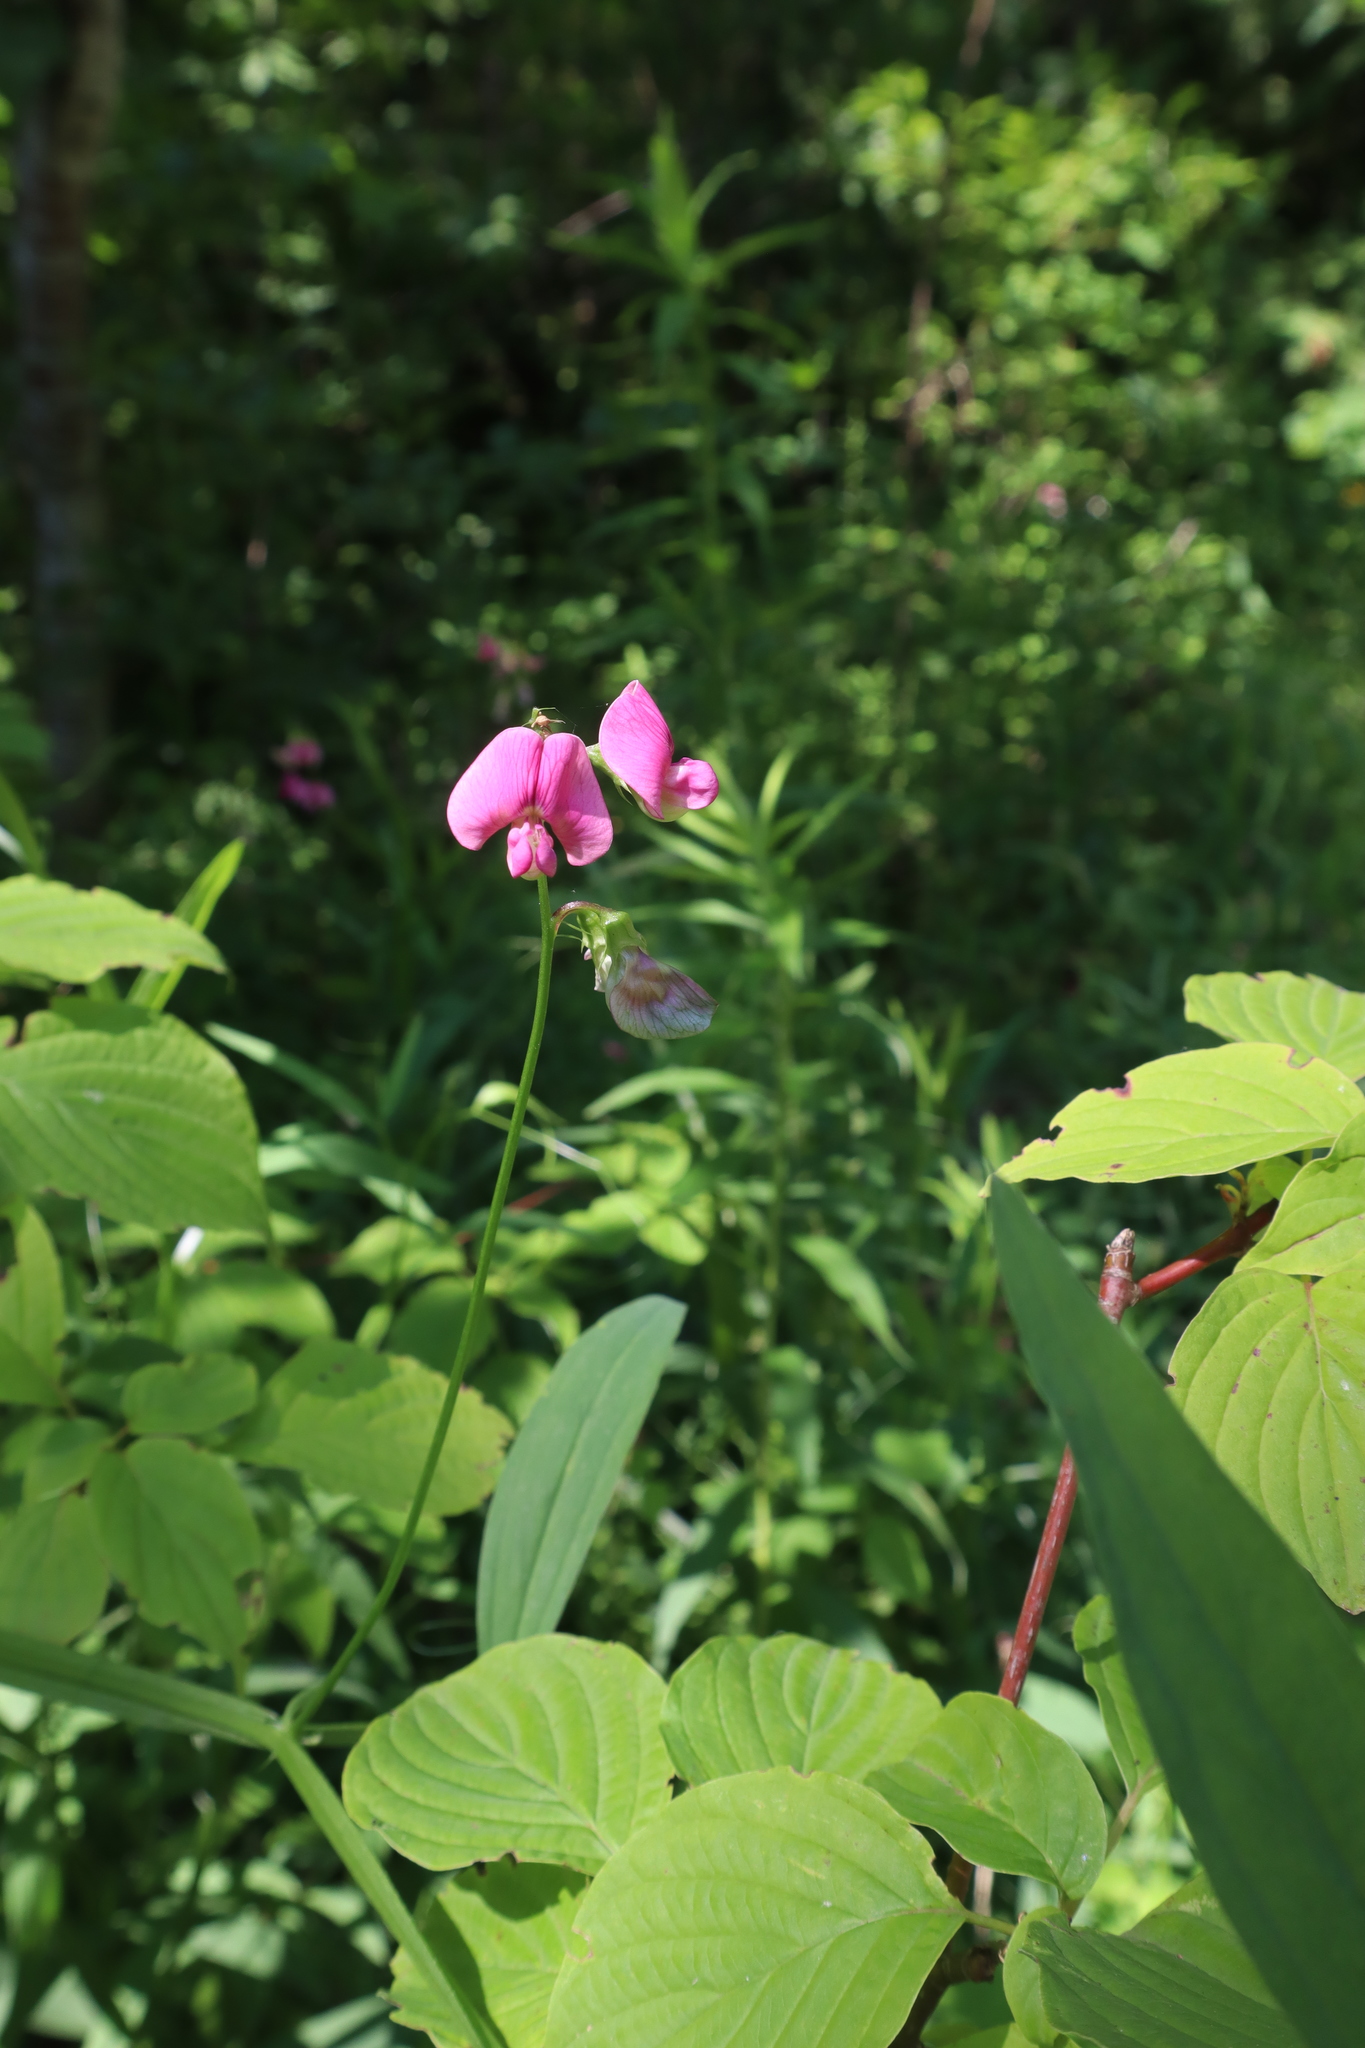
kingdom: Plantae
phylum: Tracheophyta
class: Magnoliopsida
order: Fabales
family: Fabaceae
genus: Lathyrus
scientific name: Lathyrus sylvestris
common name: Flat pea
